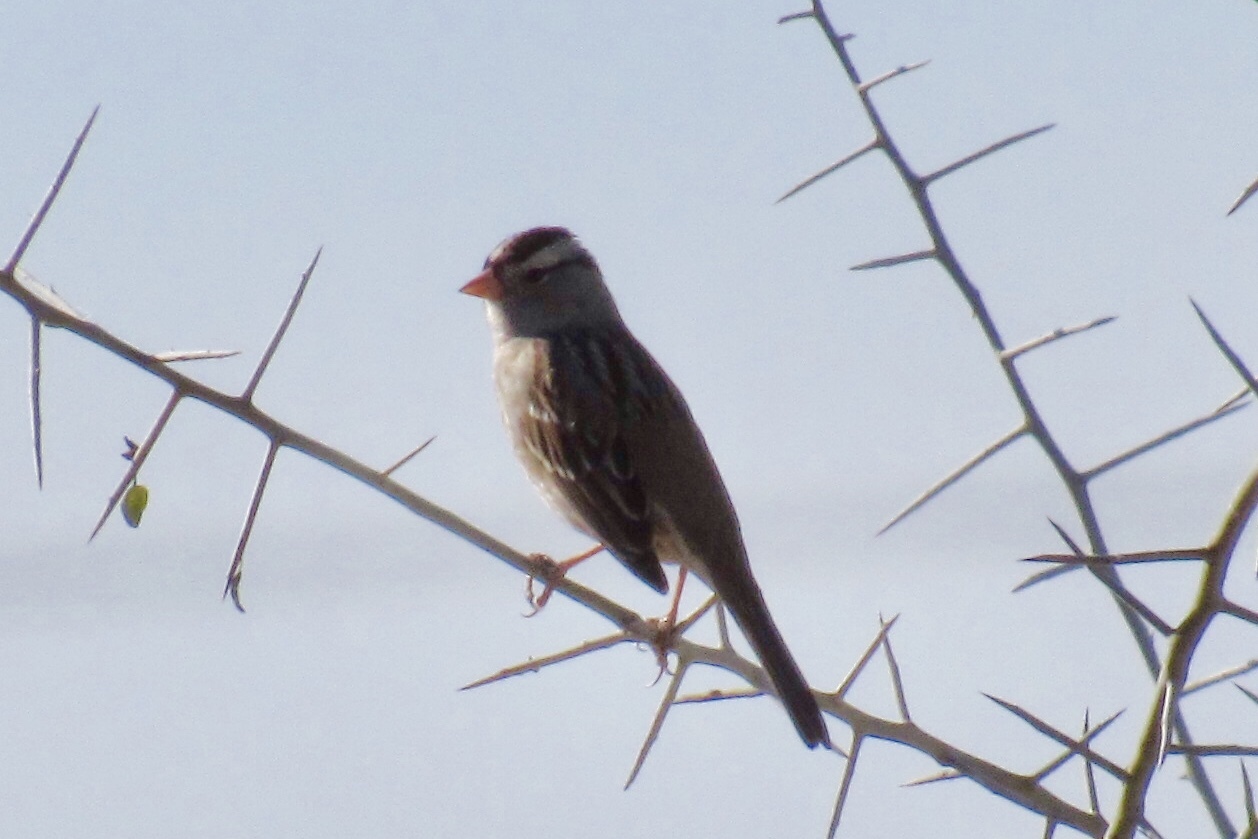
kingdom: Animalia
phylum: Chordata
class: Aves
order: Passeriformes
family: Passerellidae
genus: Zonotrichia
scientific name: Zonotrichia leucophrys
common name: White-crowned sparrow
